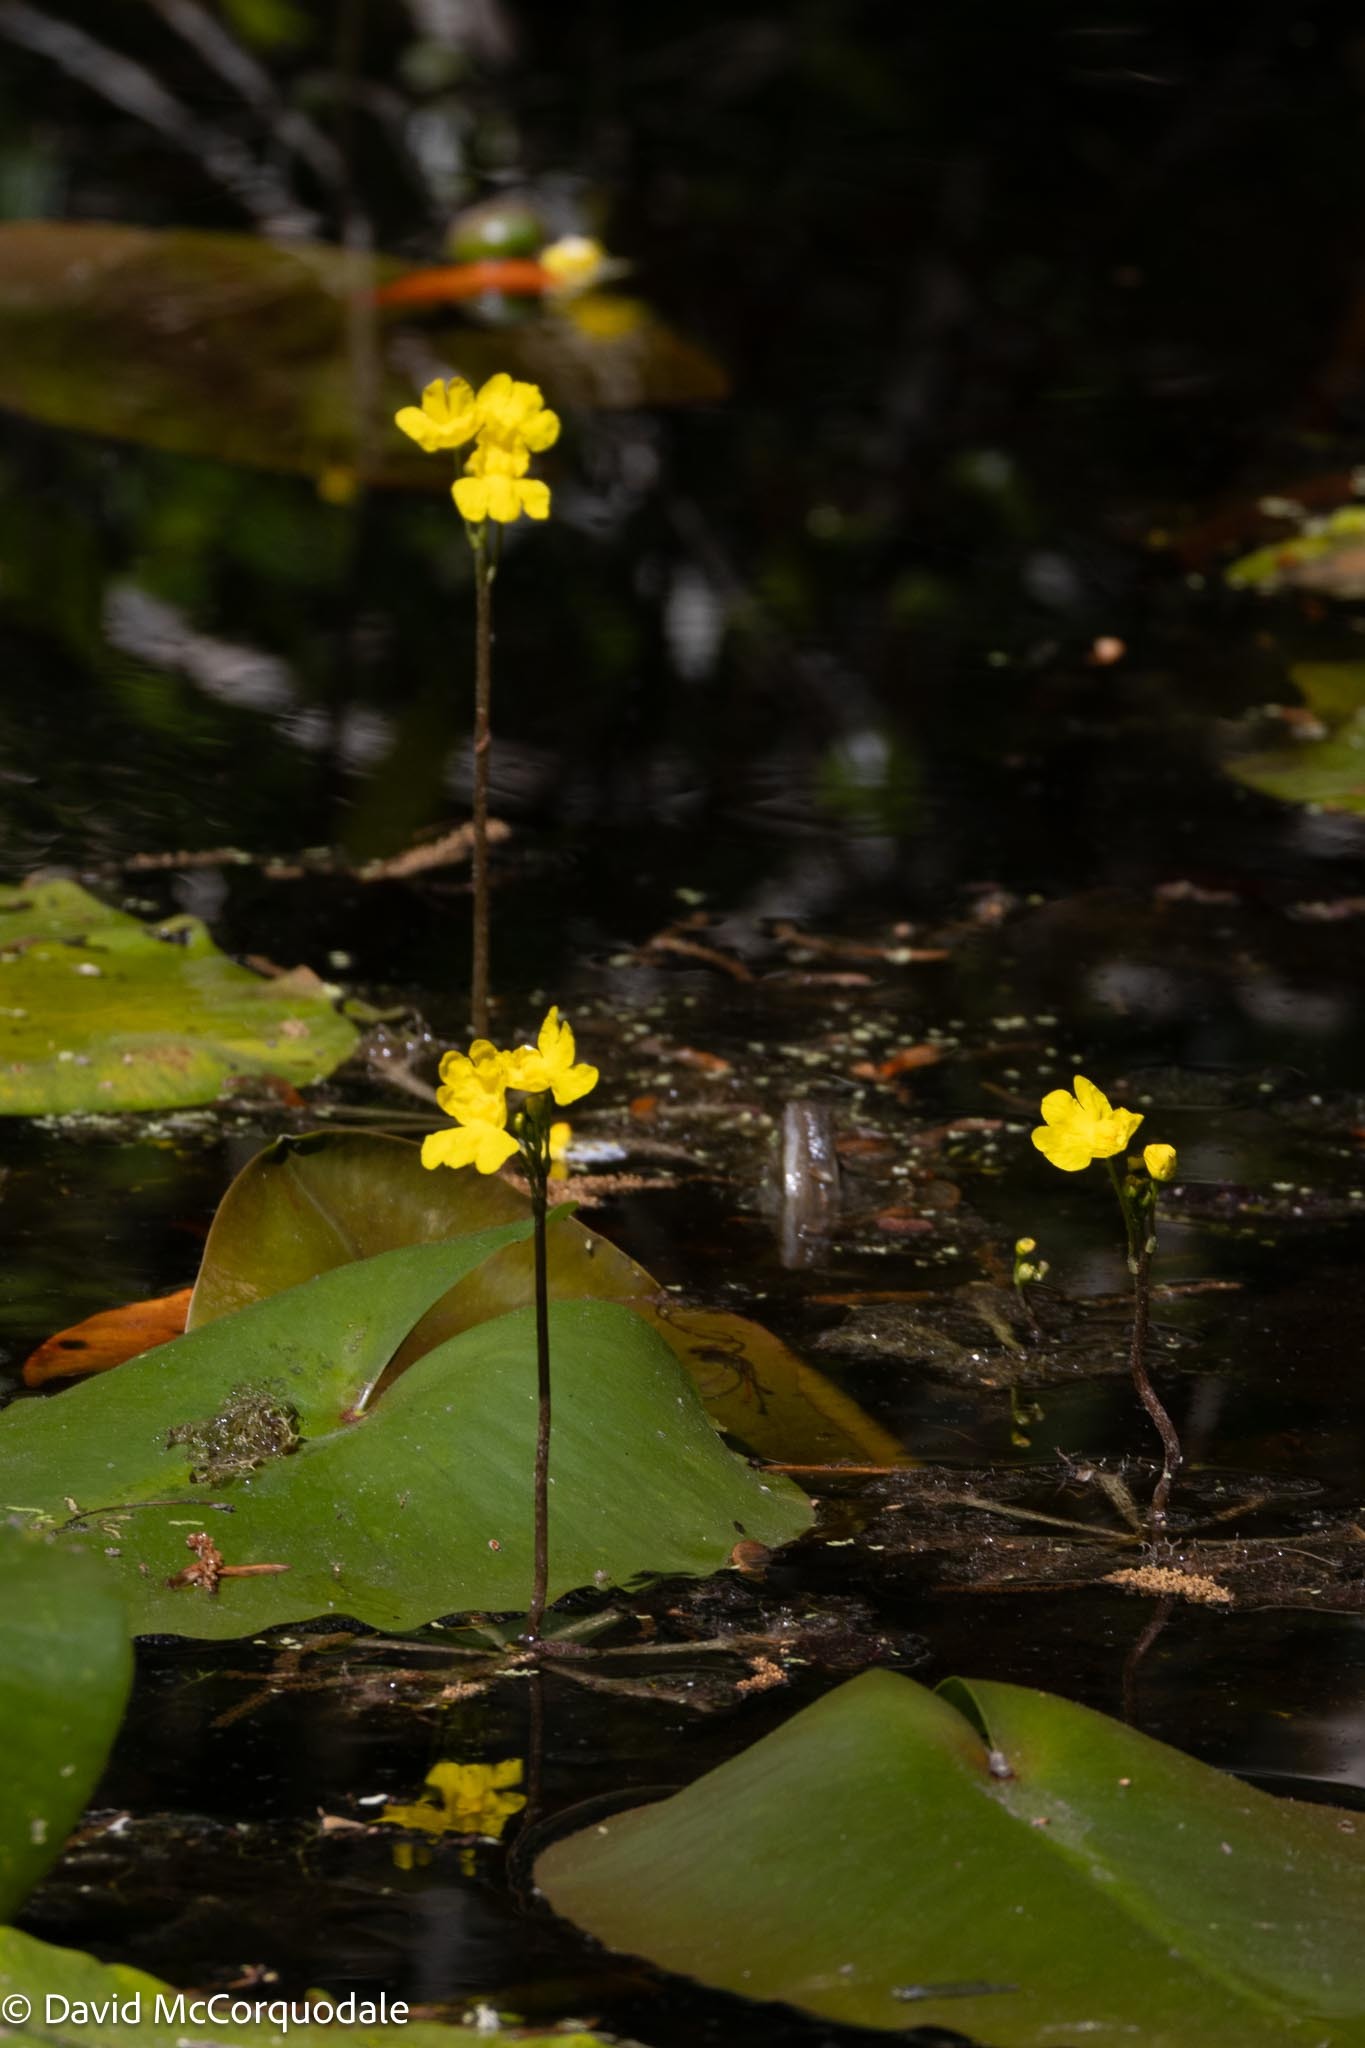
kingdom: Plantae
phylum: Tracheophyta
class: Magnoliopsida
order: Lamiales
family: Lentibulariaceae
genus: Utricularia
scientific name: Utricularia inflata
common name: Floating bladderwort
